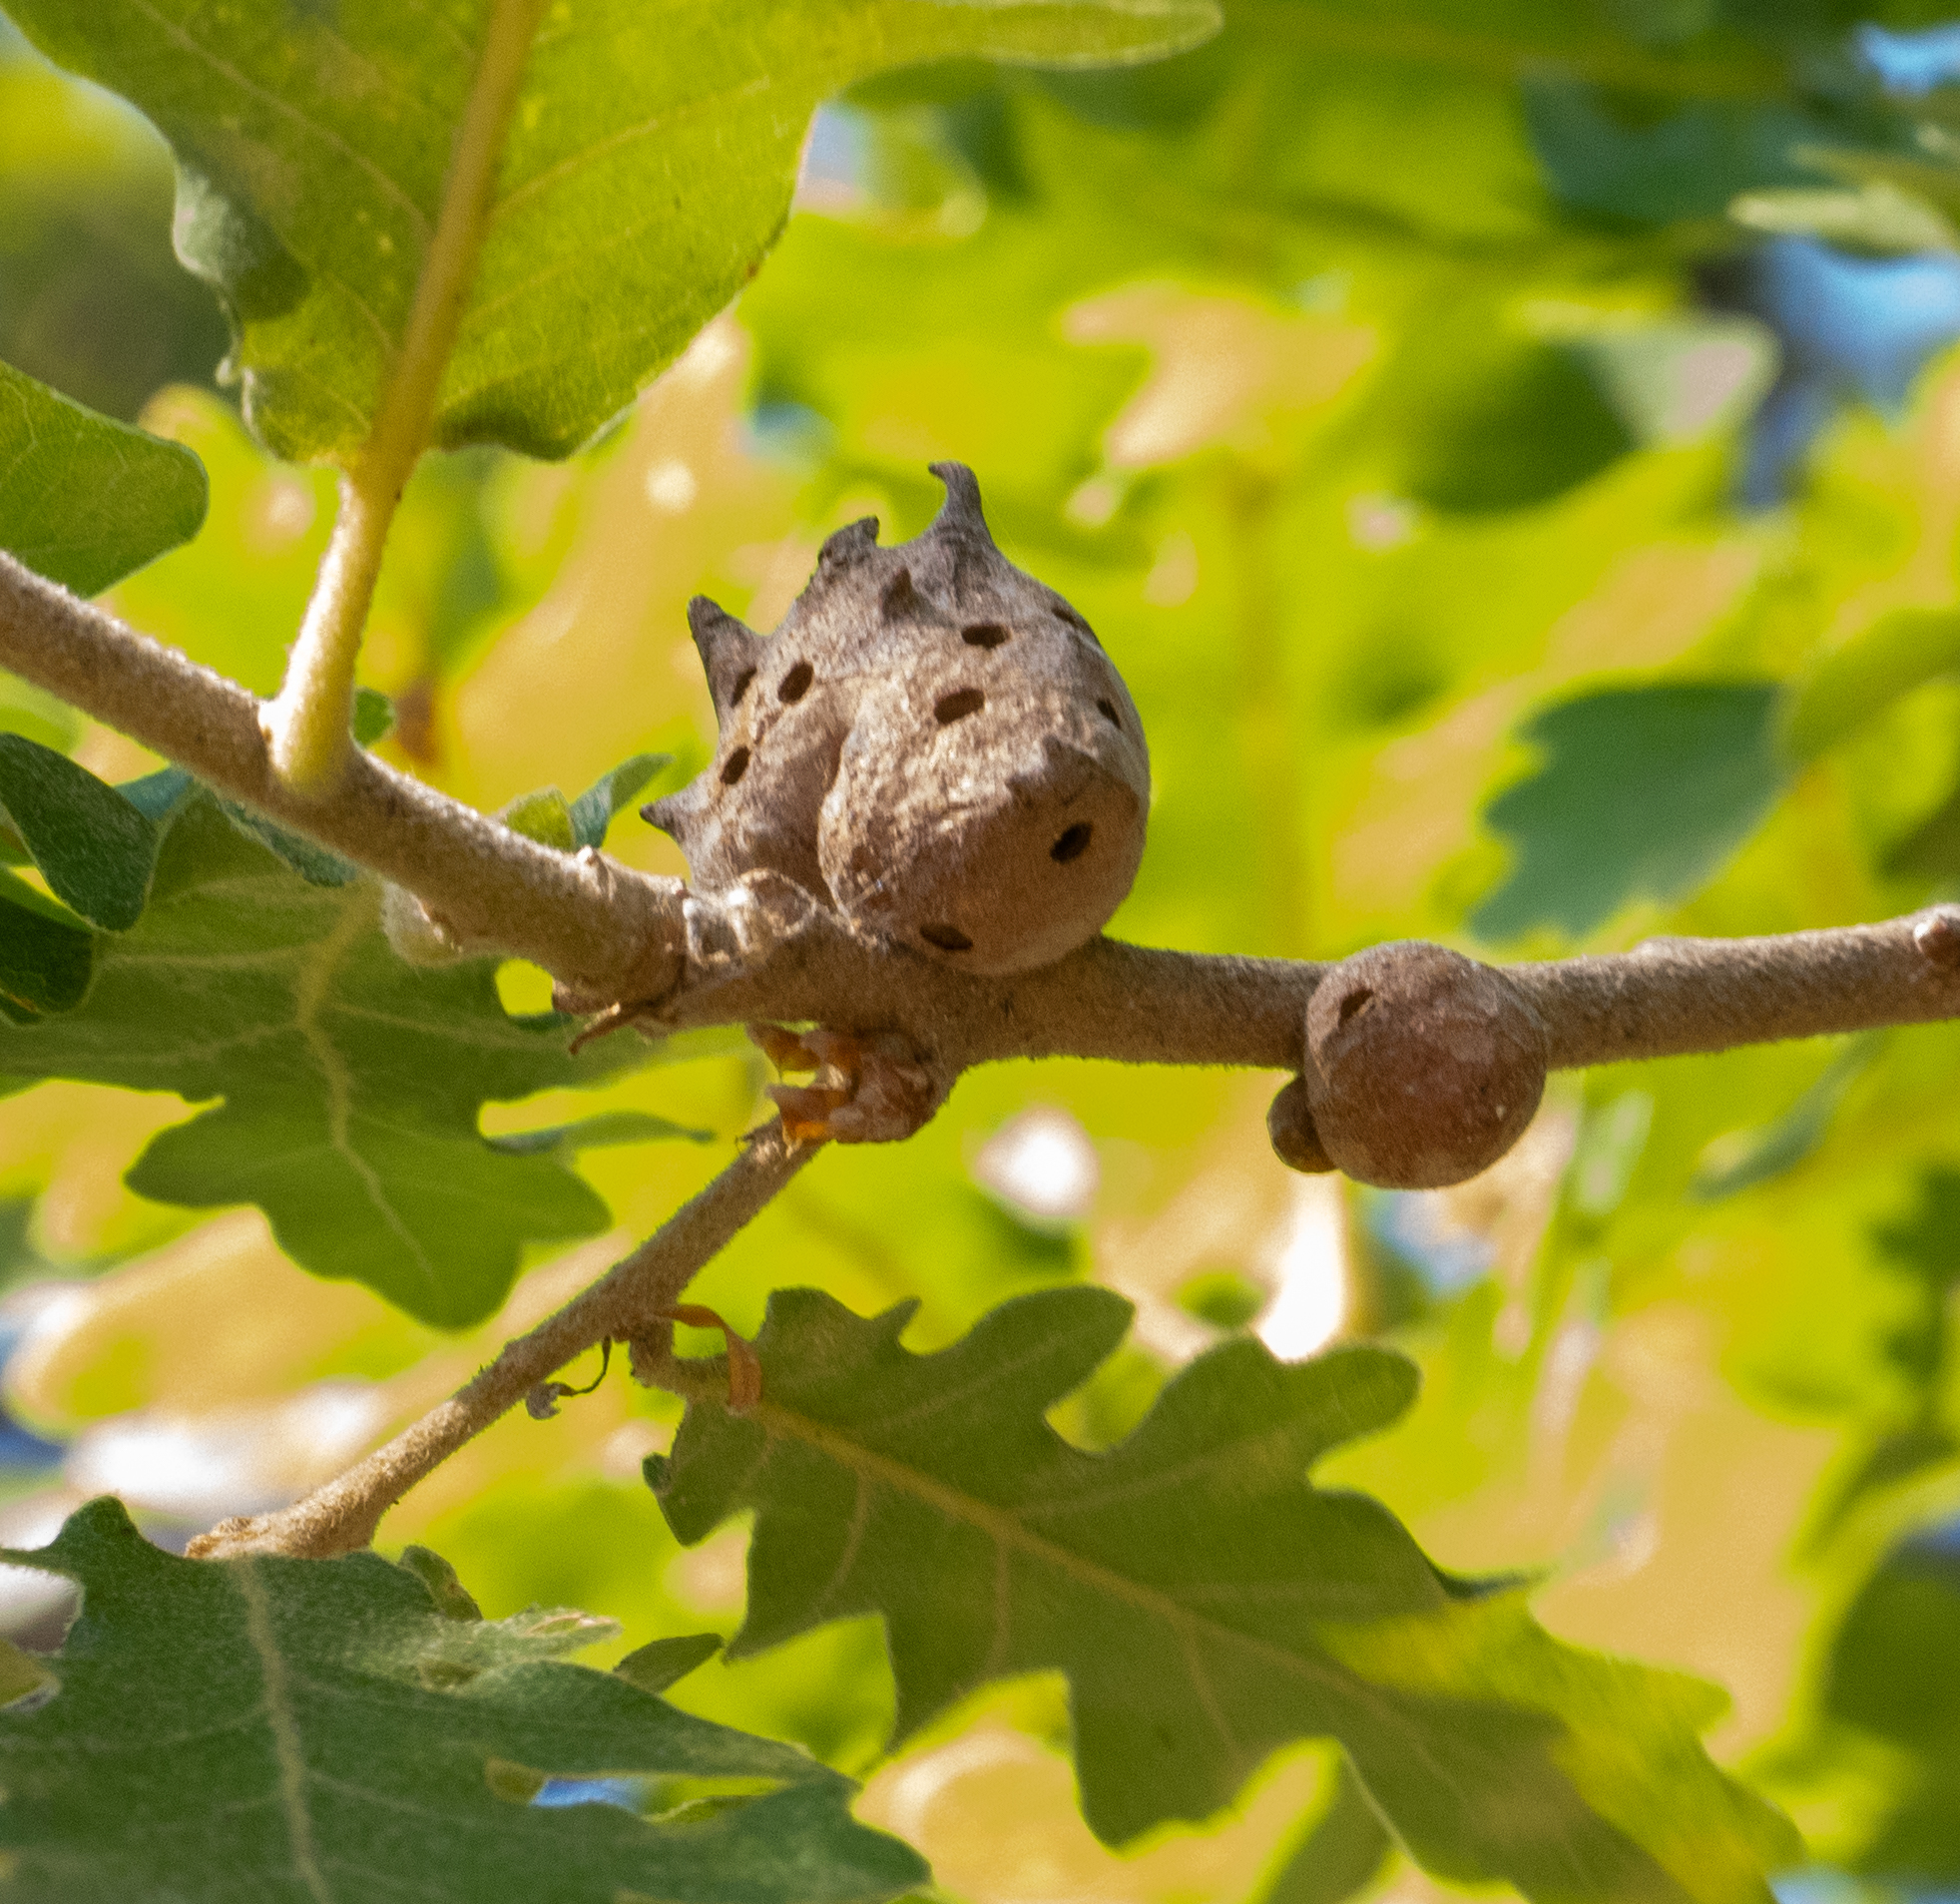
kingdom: Animalia
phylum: Arthropoda
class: Insecta
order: Hymenoptera
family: Cynipidae
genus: Andricus
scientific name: Andricus coriarius
